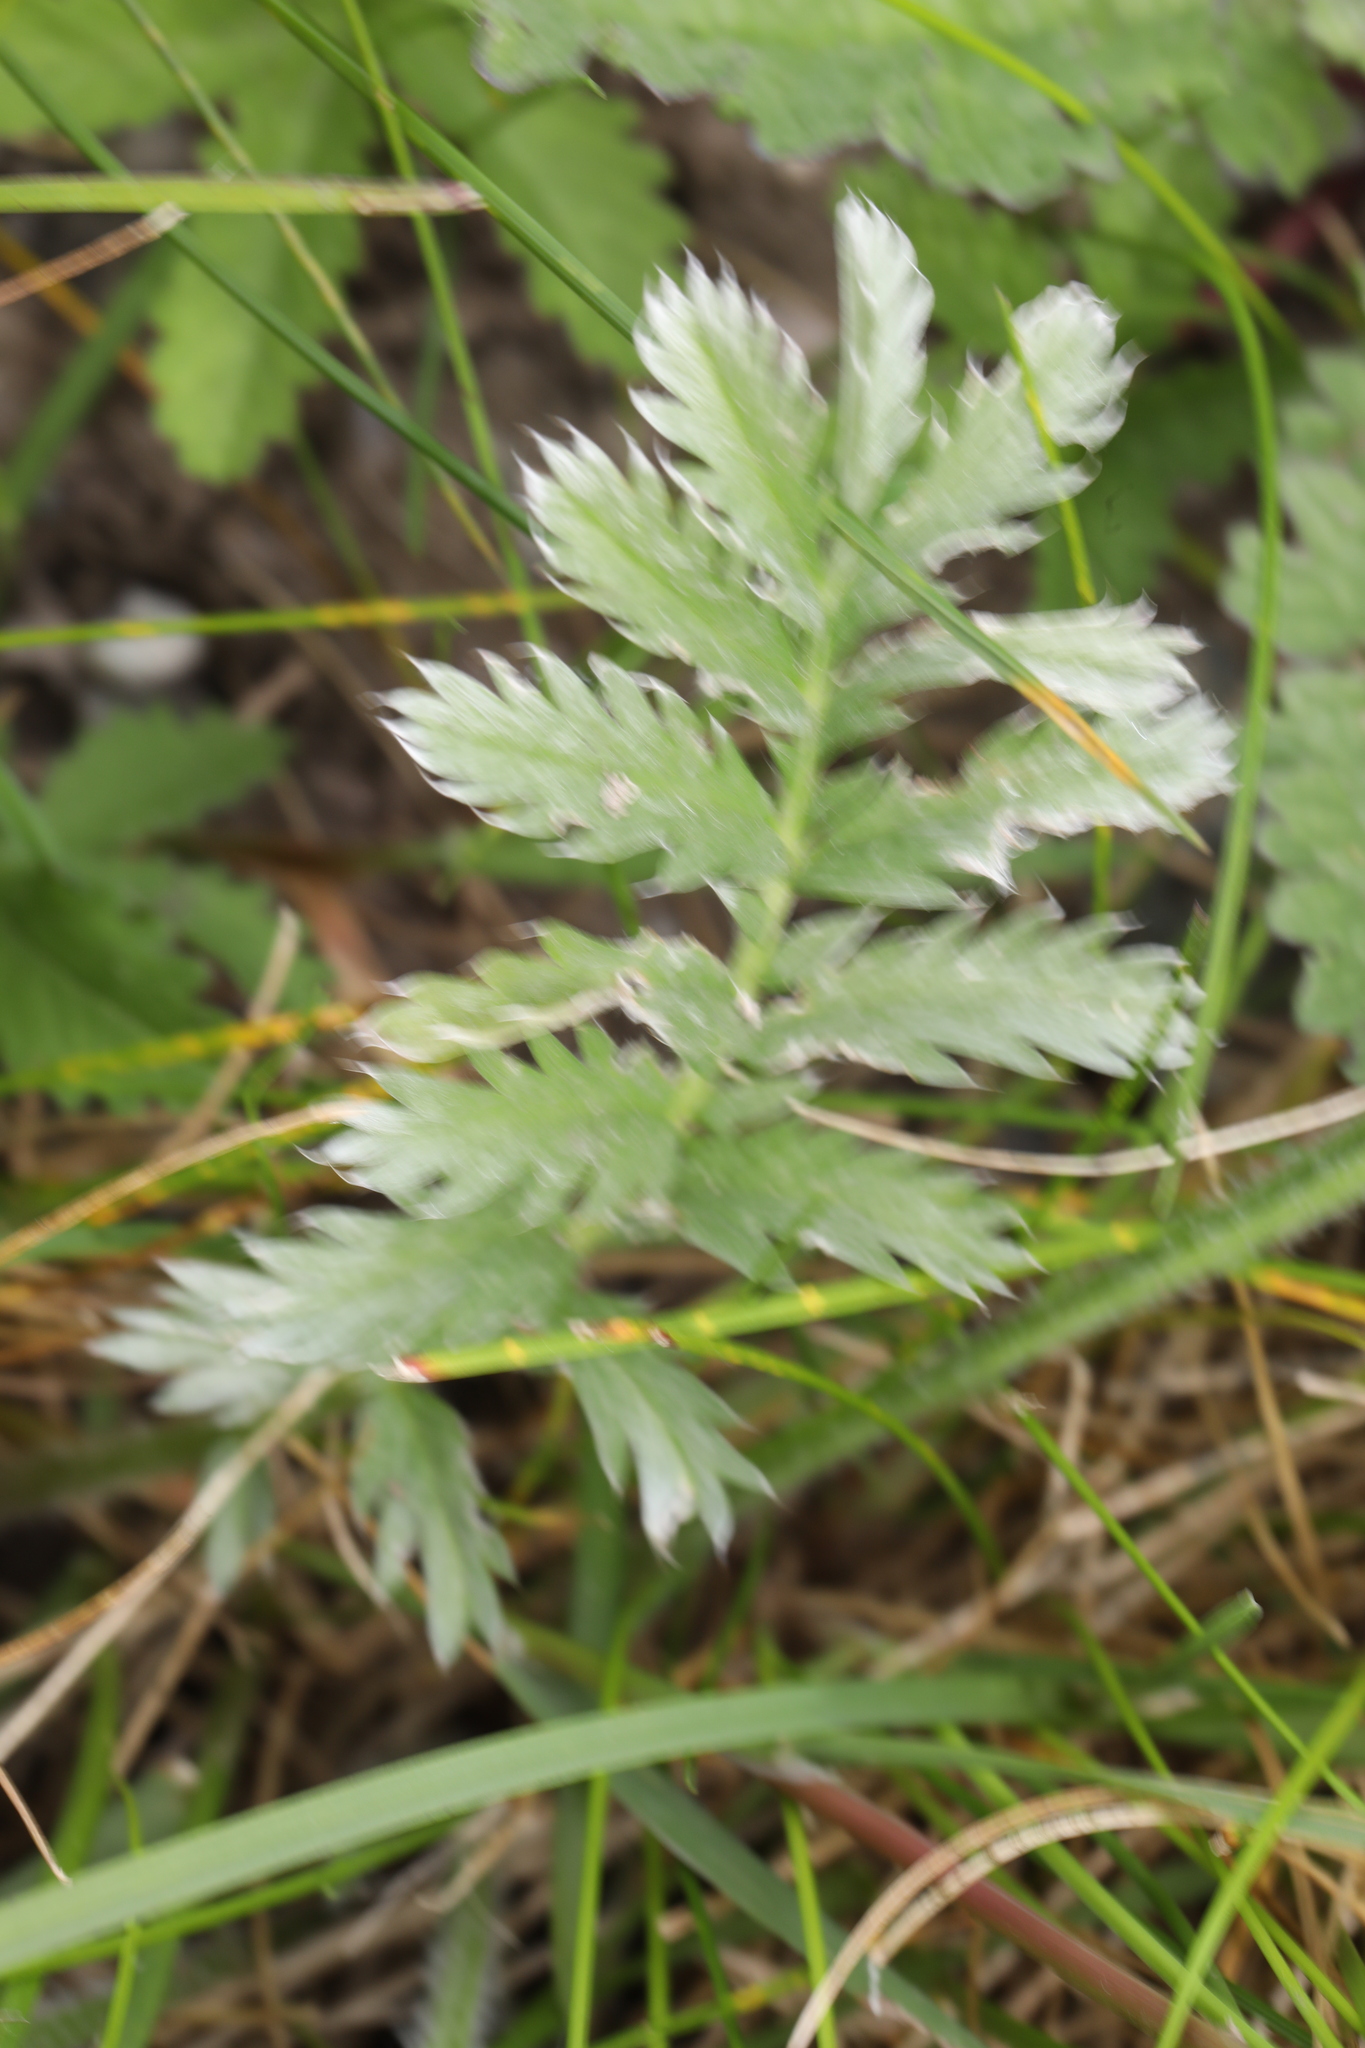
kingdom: Plantae
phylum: Tracheophyta
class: Magnoliopsida
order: Rosales
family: Rosaceae
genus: Argentina
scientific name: Argentina anserina
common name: Common silverweed
